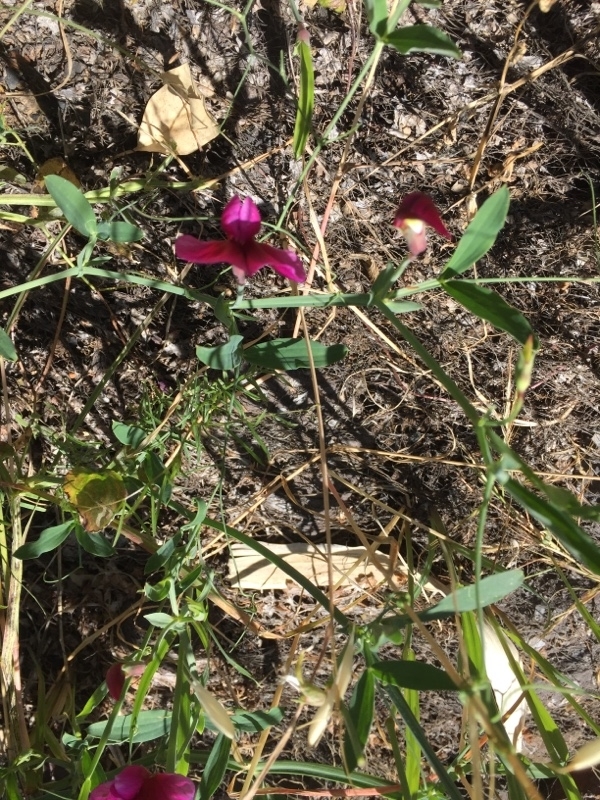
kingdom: Plantae
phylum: Tracheophyta
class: Magnoliopsida
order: Fabales
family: Fabaceae
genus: Lathyrus
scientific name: Lathyrus tingitanus
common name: Tangier pea
